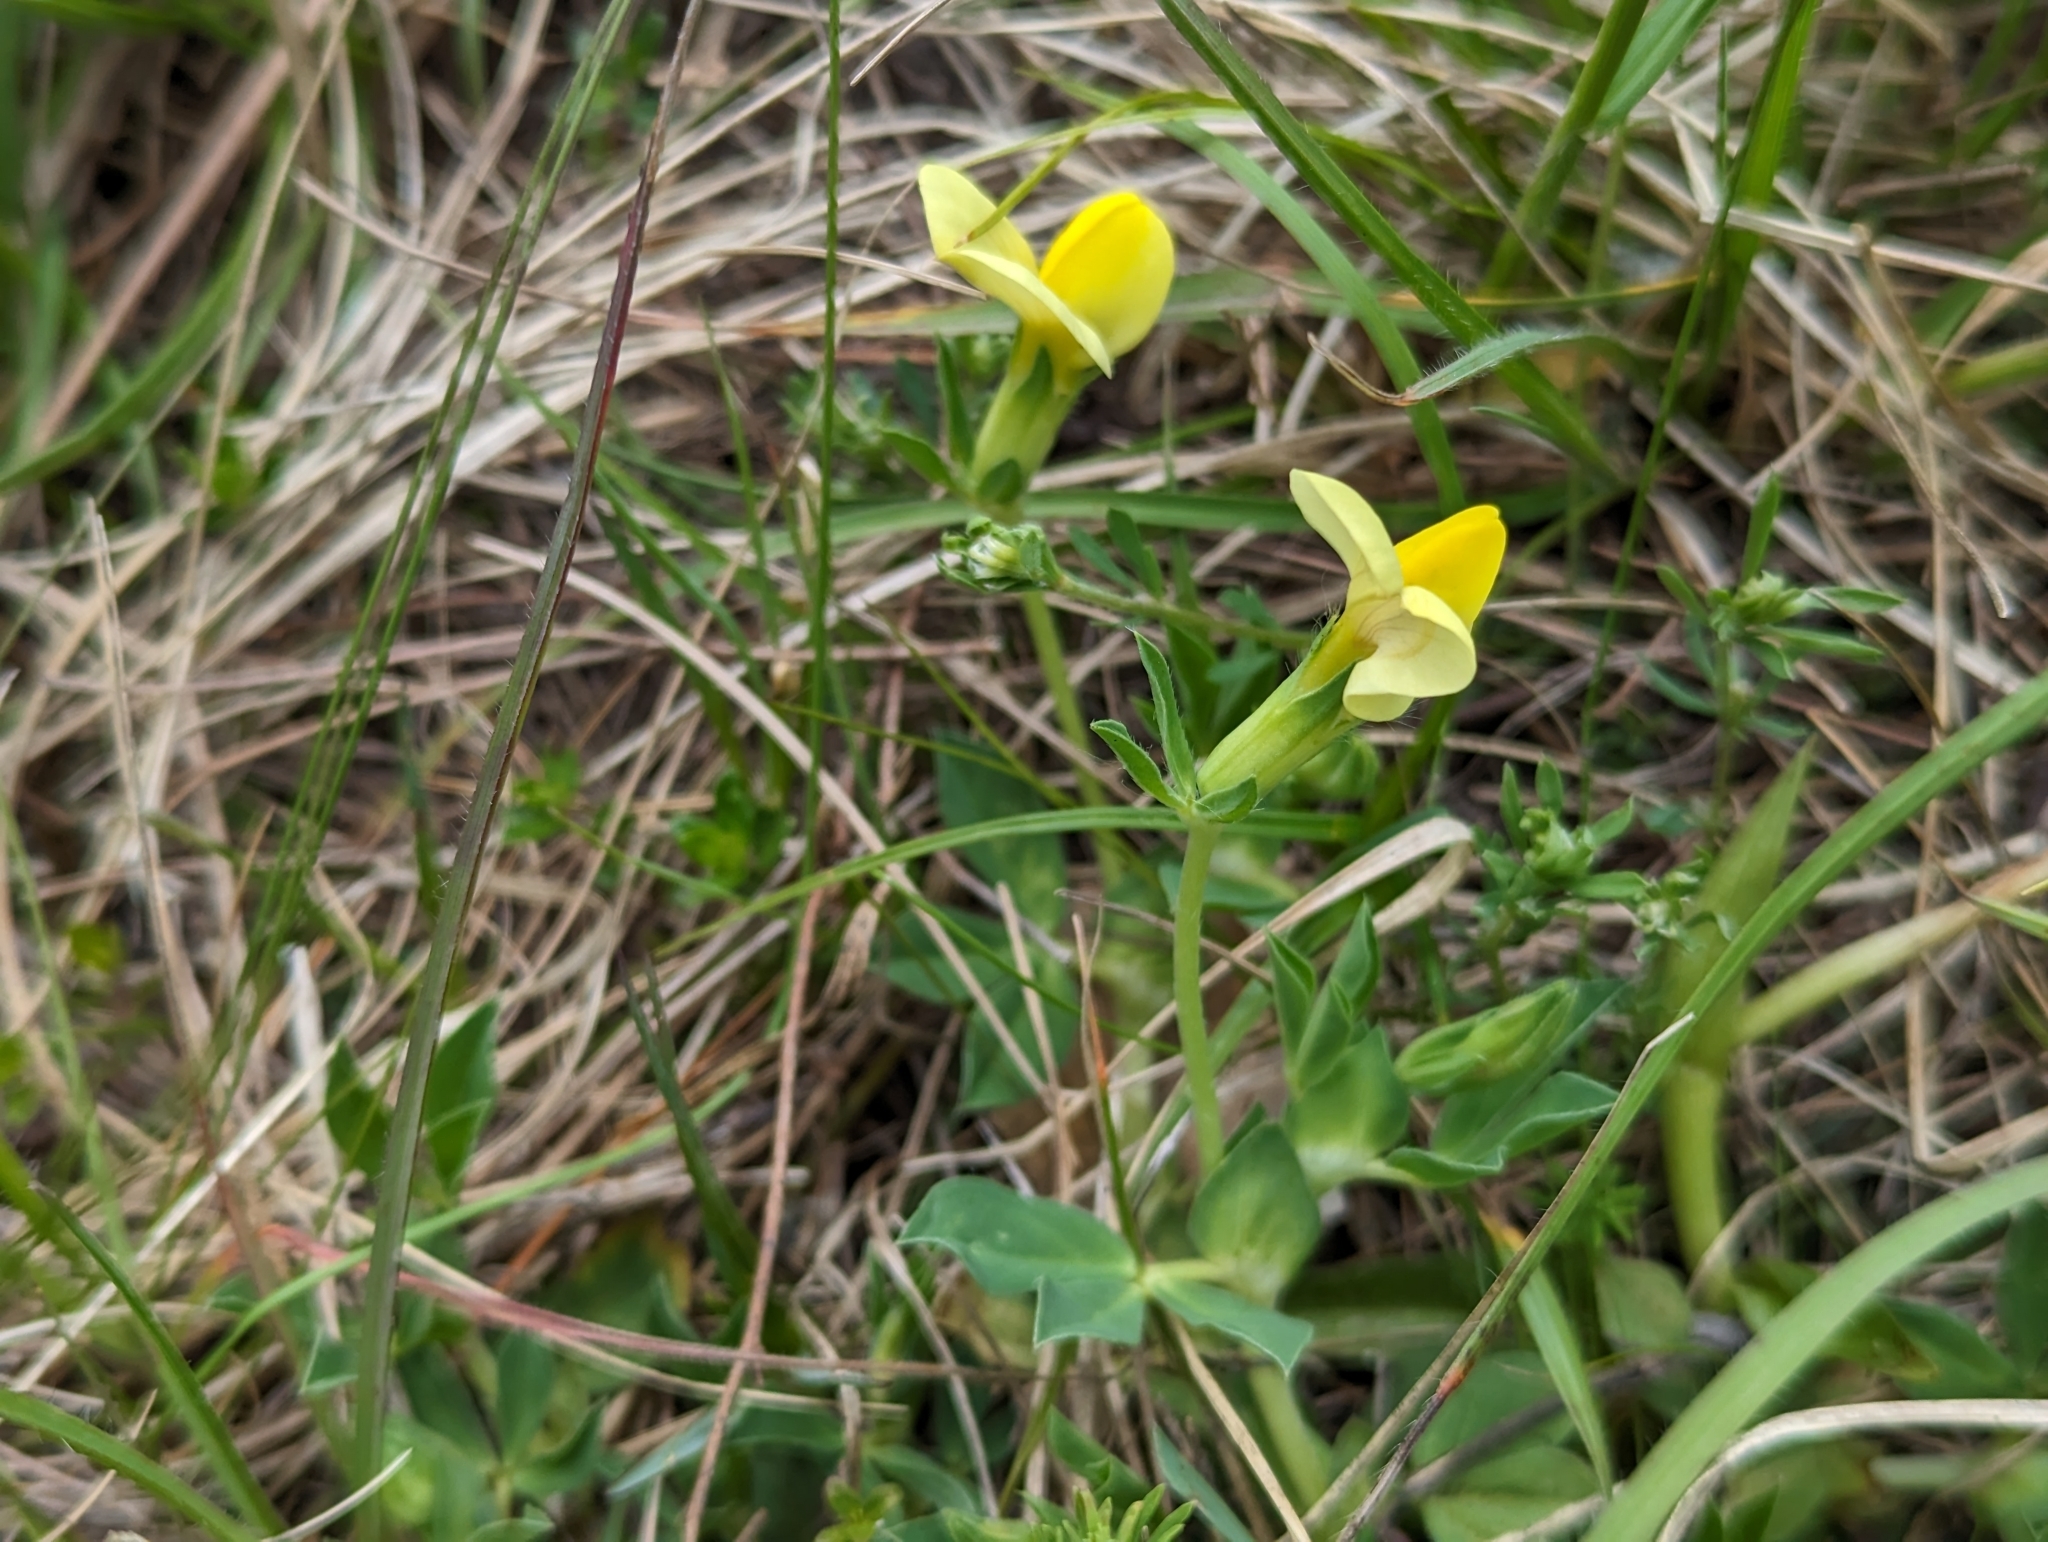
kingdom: Plantae
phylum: Tracheophyta
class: Magnoliopsida
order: Fabales
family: Fabaceae
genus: Lotus
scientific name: Lotus maritimus
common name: Dragon's-teeth
